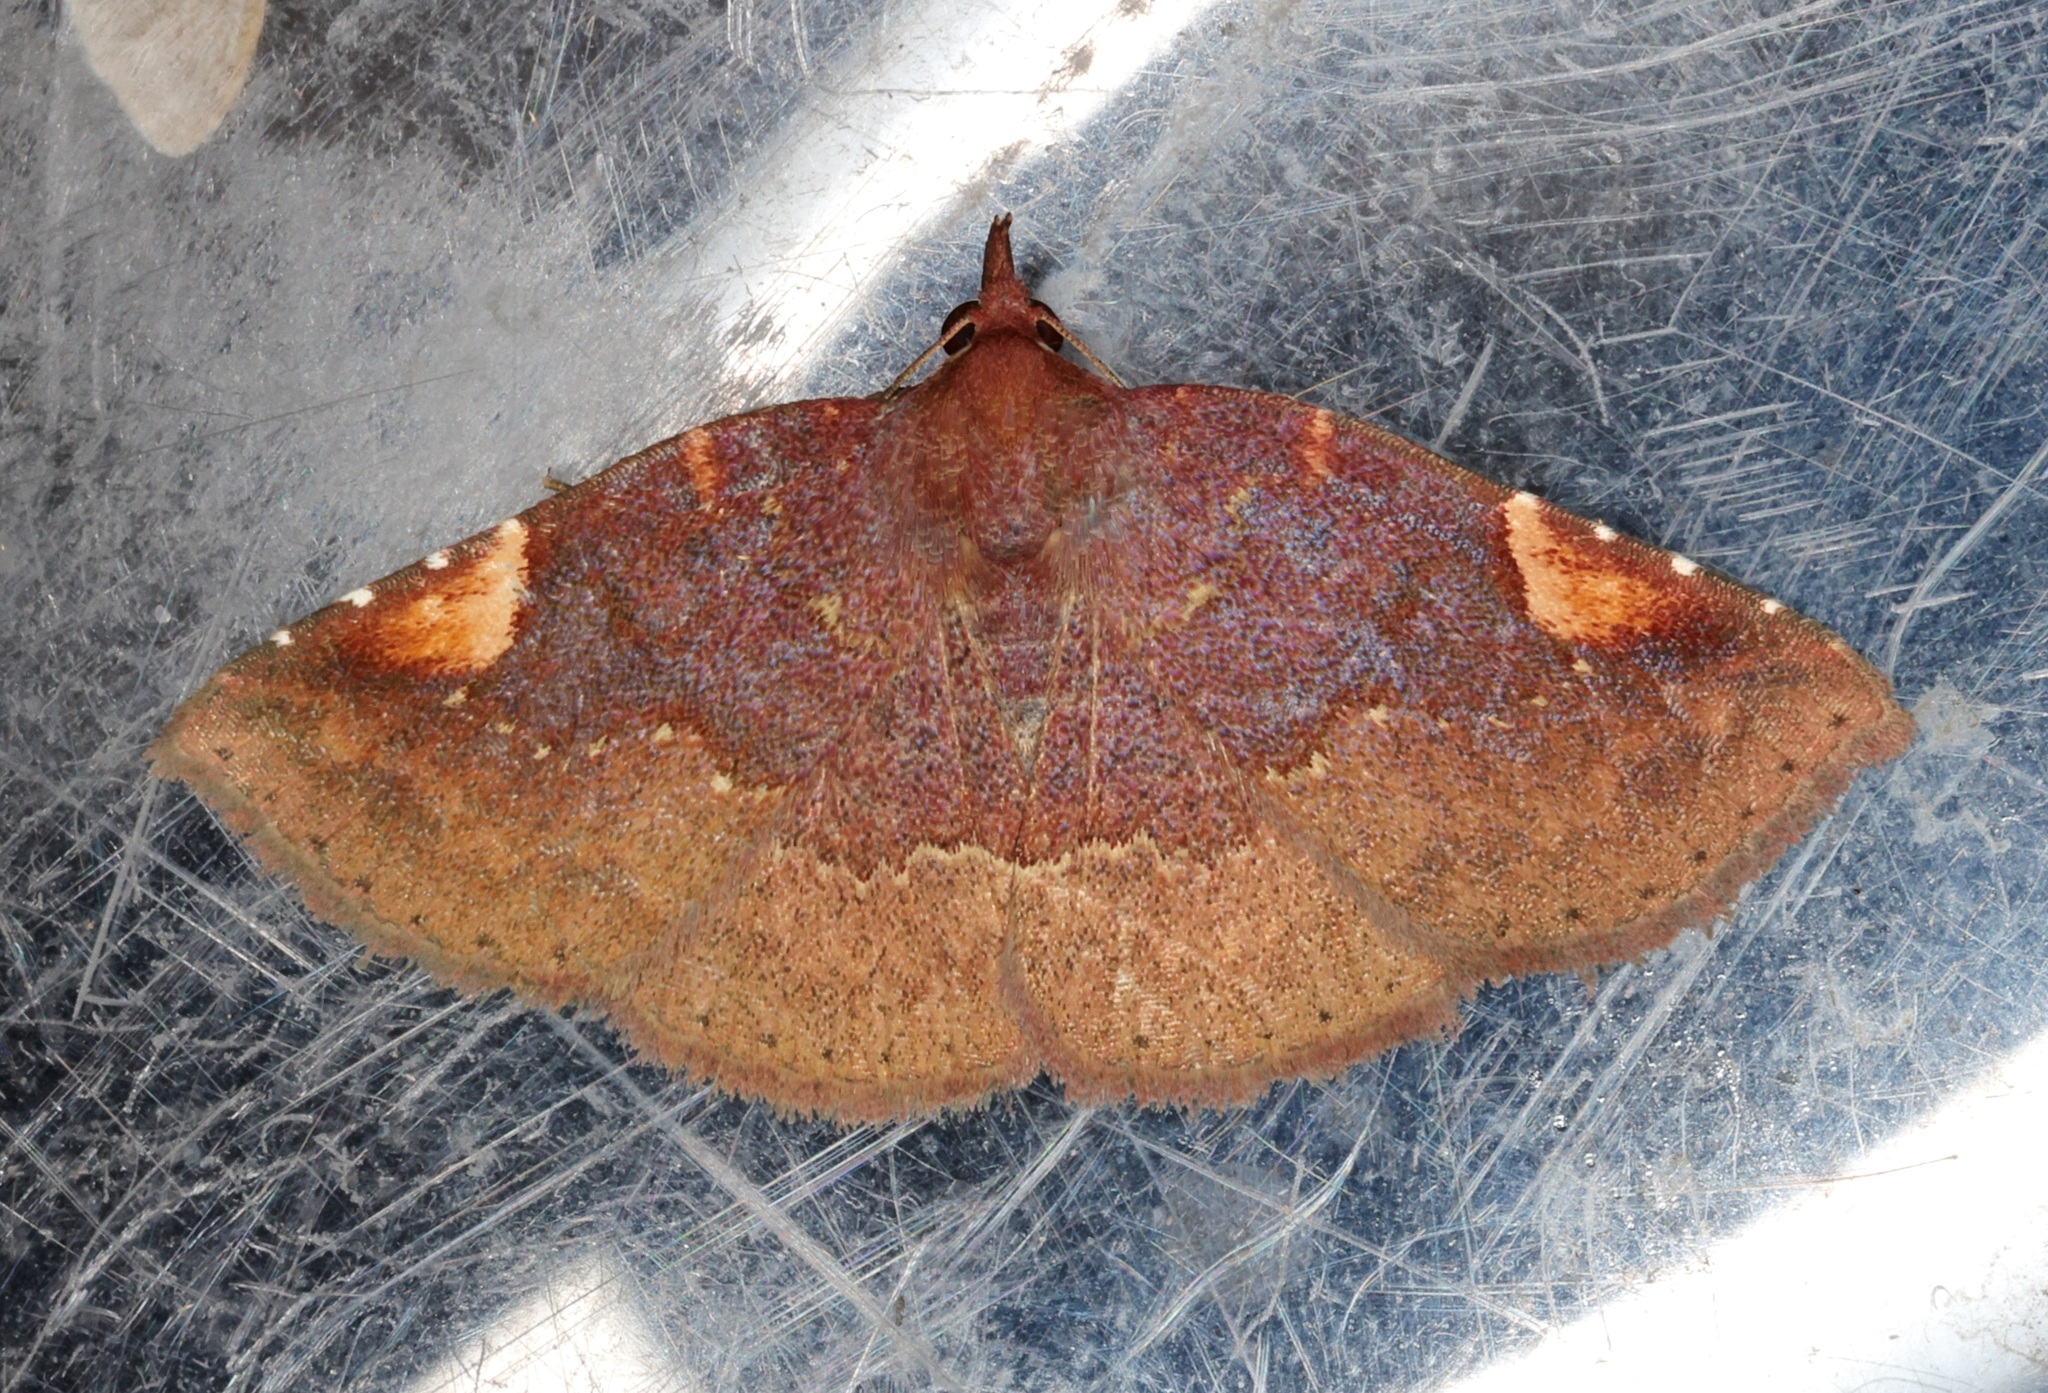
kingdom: Animalia
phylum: Arthropoda
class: Insecta
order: Lepidoptera
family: Erebidae
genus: Pangrapta
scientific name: Pangrapta roseinotata
